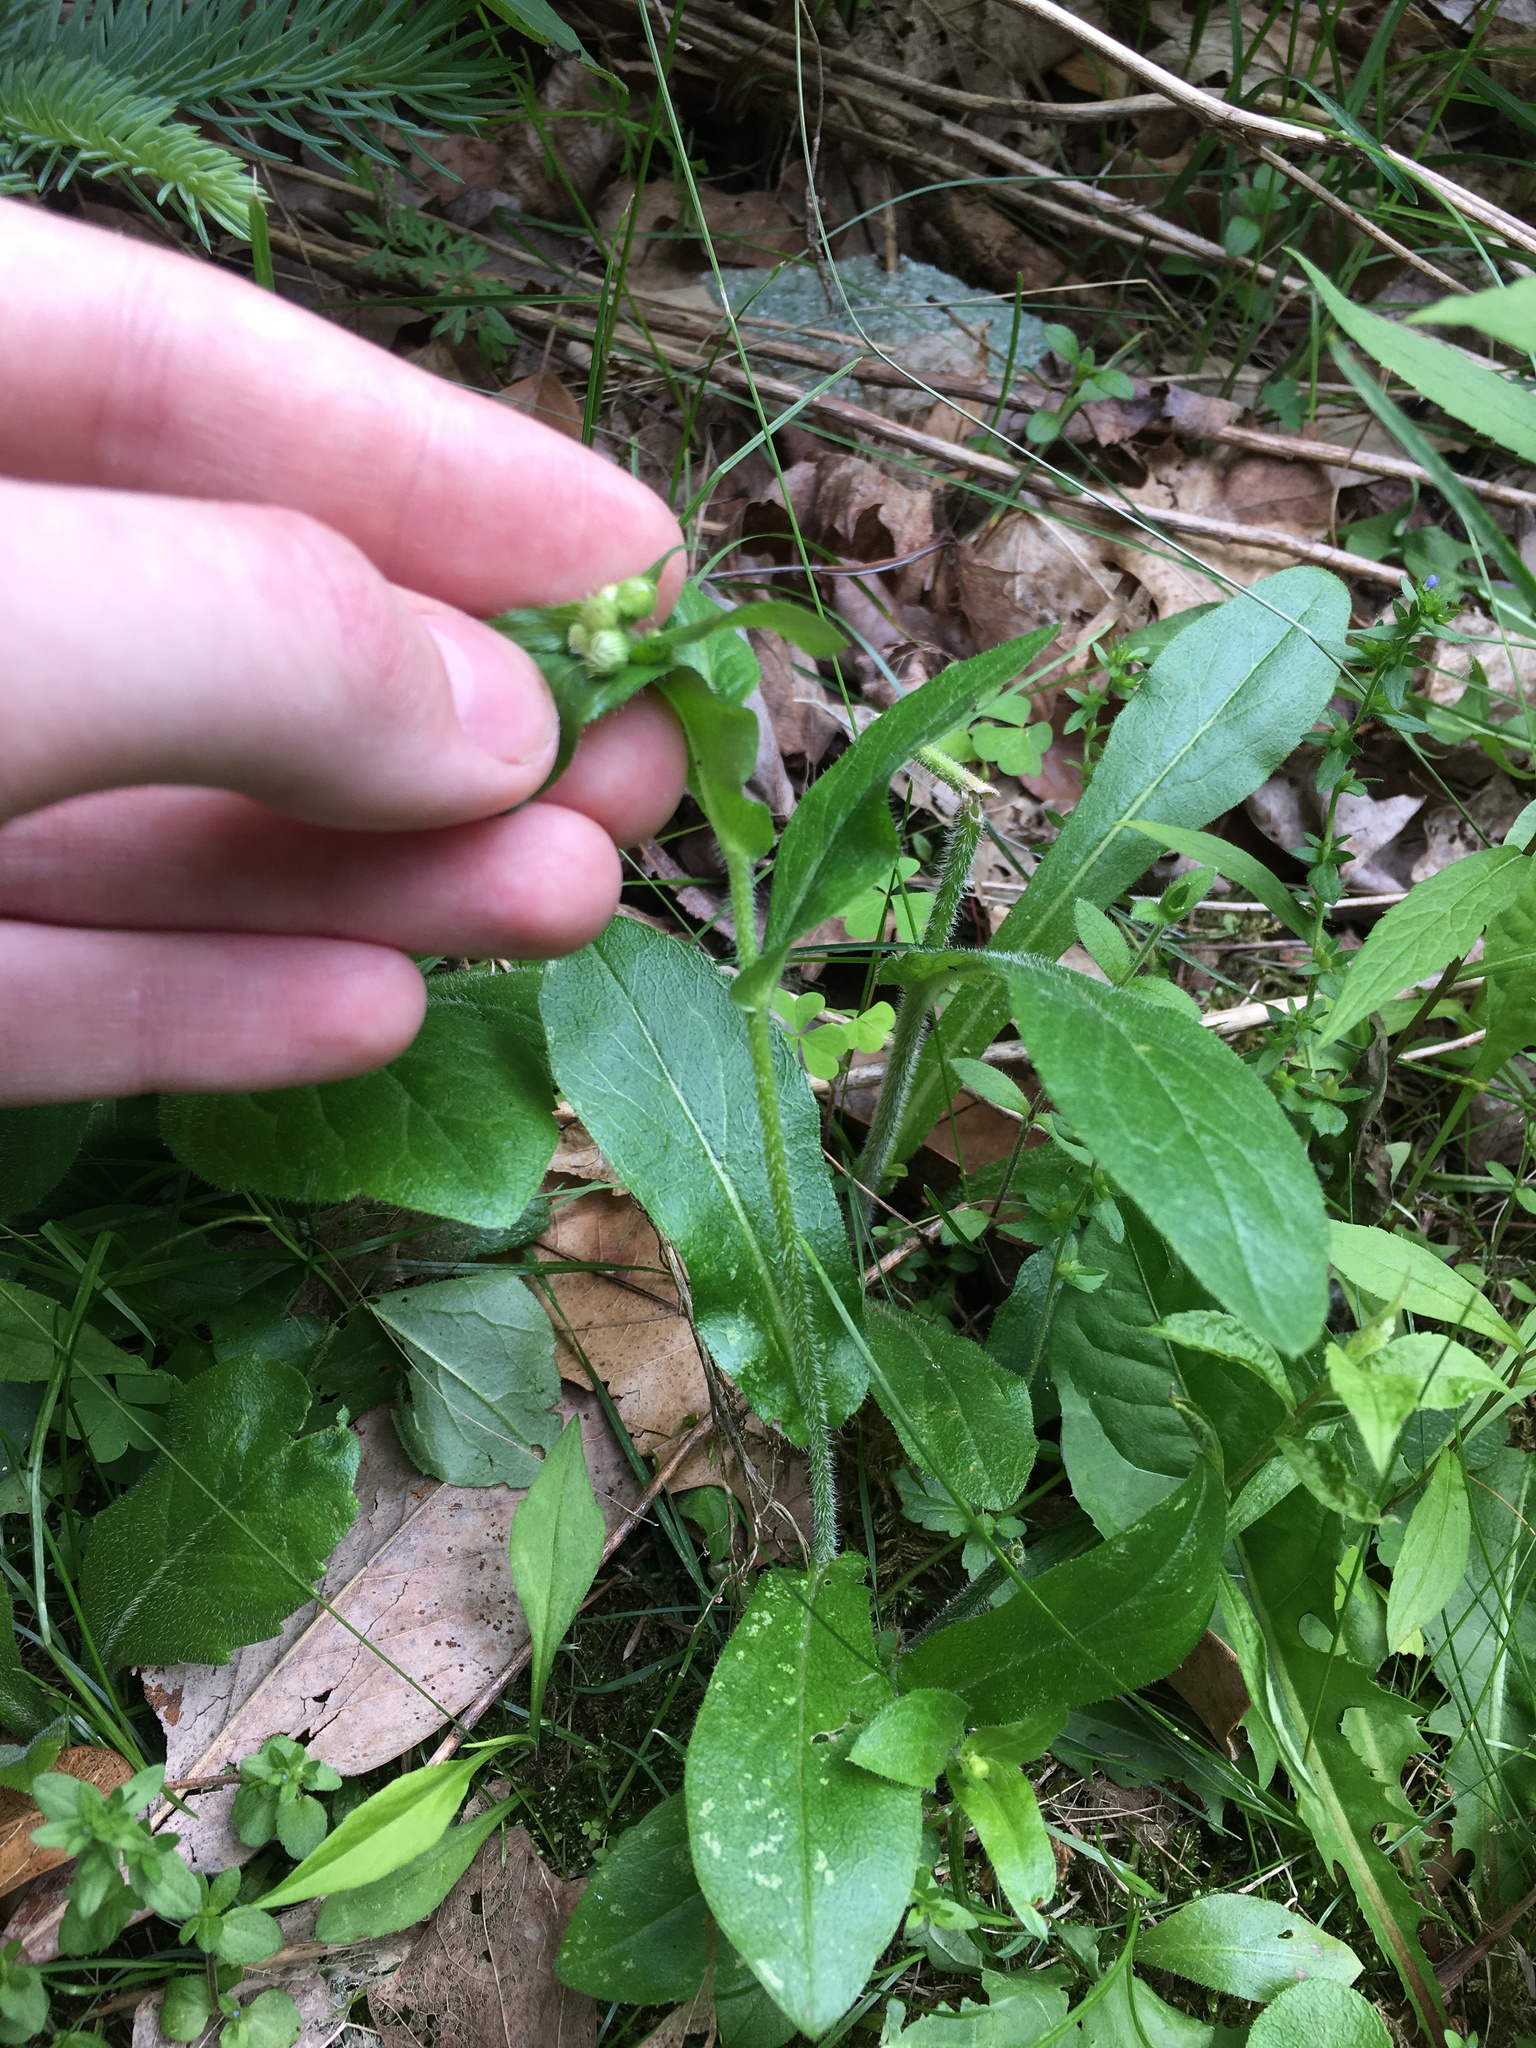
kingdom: Plantae
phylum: Tracheophyta
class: Magnoliopsida
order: Asterales
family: Asteraceae
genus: Erigeron
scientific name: Erigeron philadelphicus
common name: Robin's-plantain
